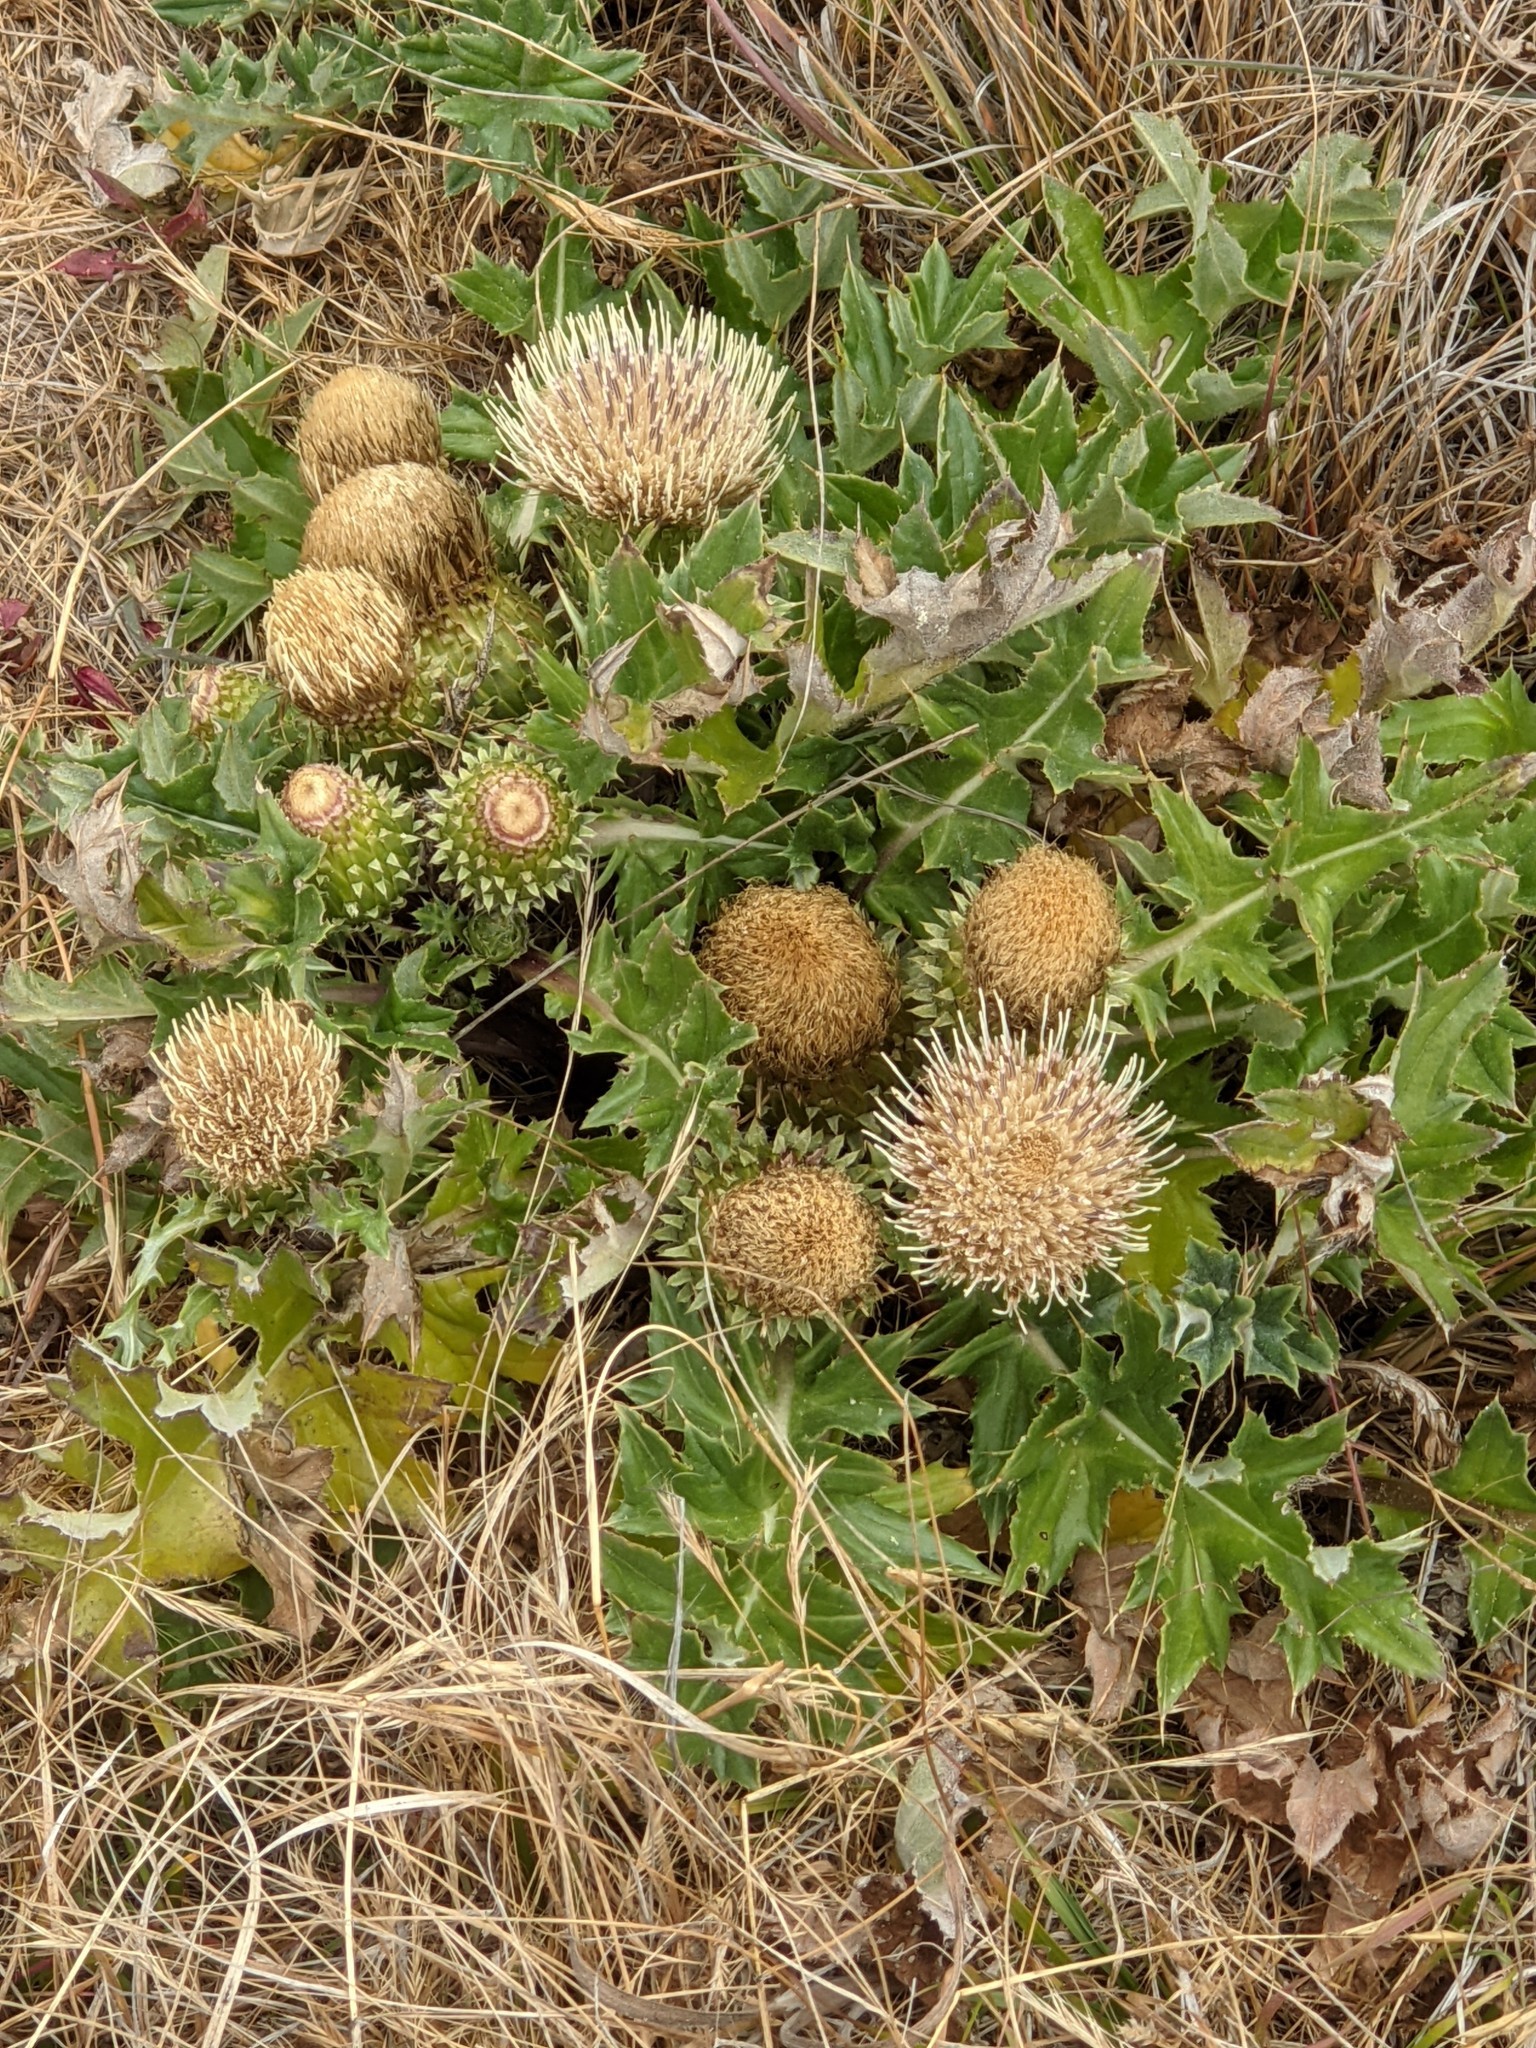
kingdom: Plantae
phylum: Tracheophyta
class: Magnoliopsida
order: Asterales
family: Asteraceae
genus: Cirsium
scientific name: Cirsium quercetorum
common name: Alameda county thistle
